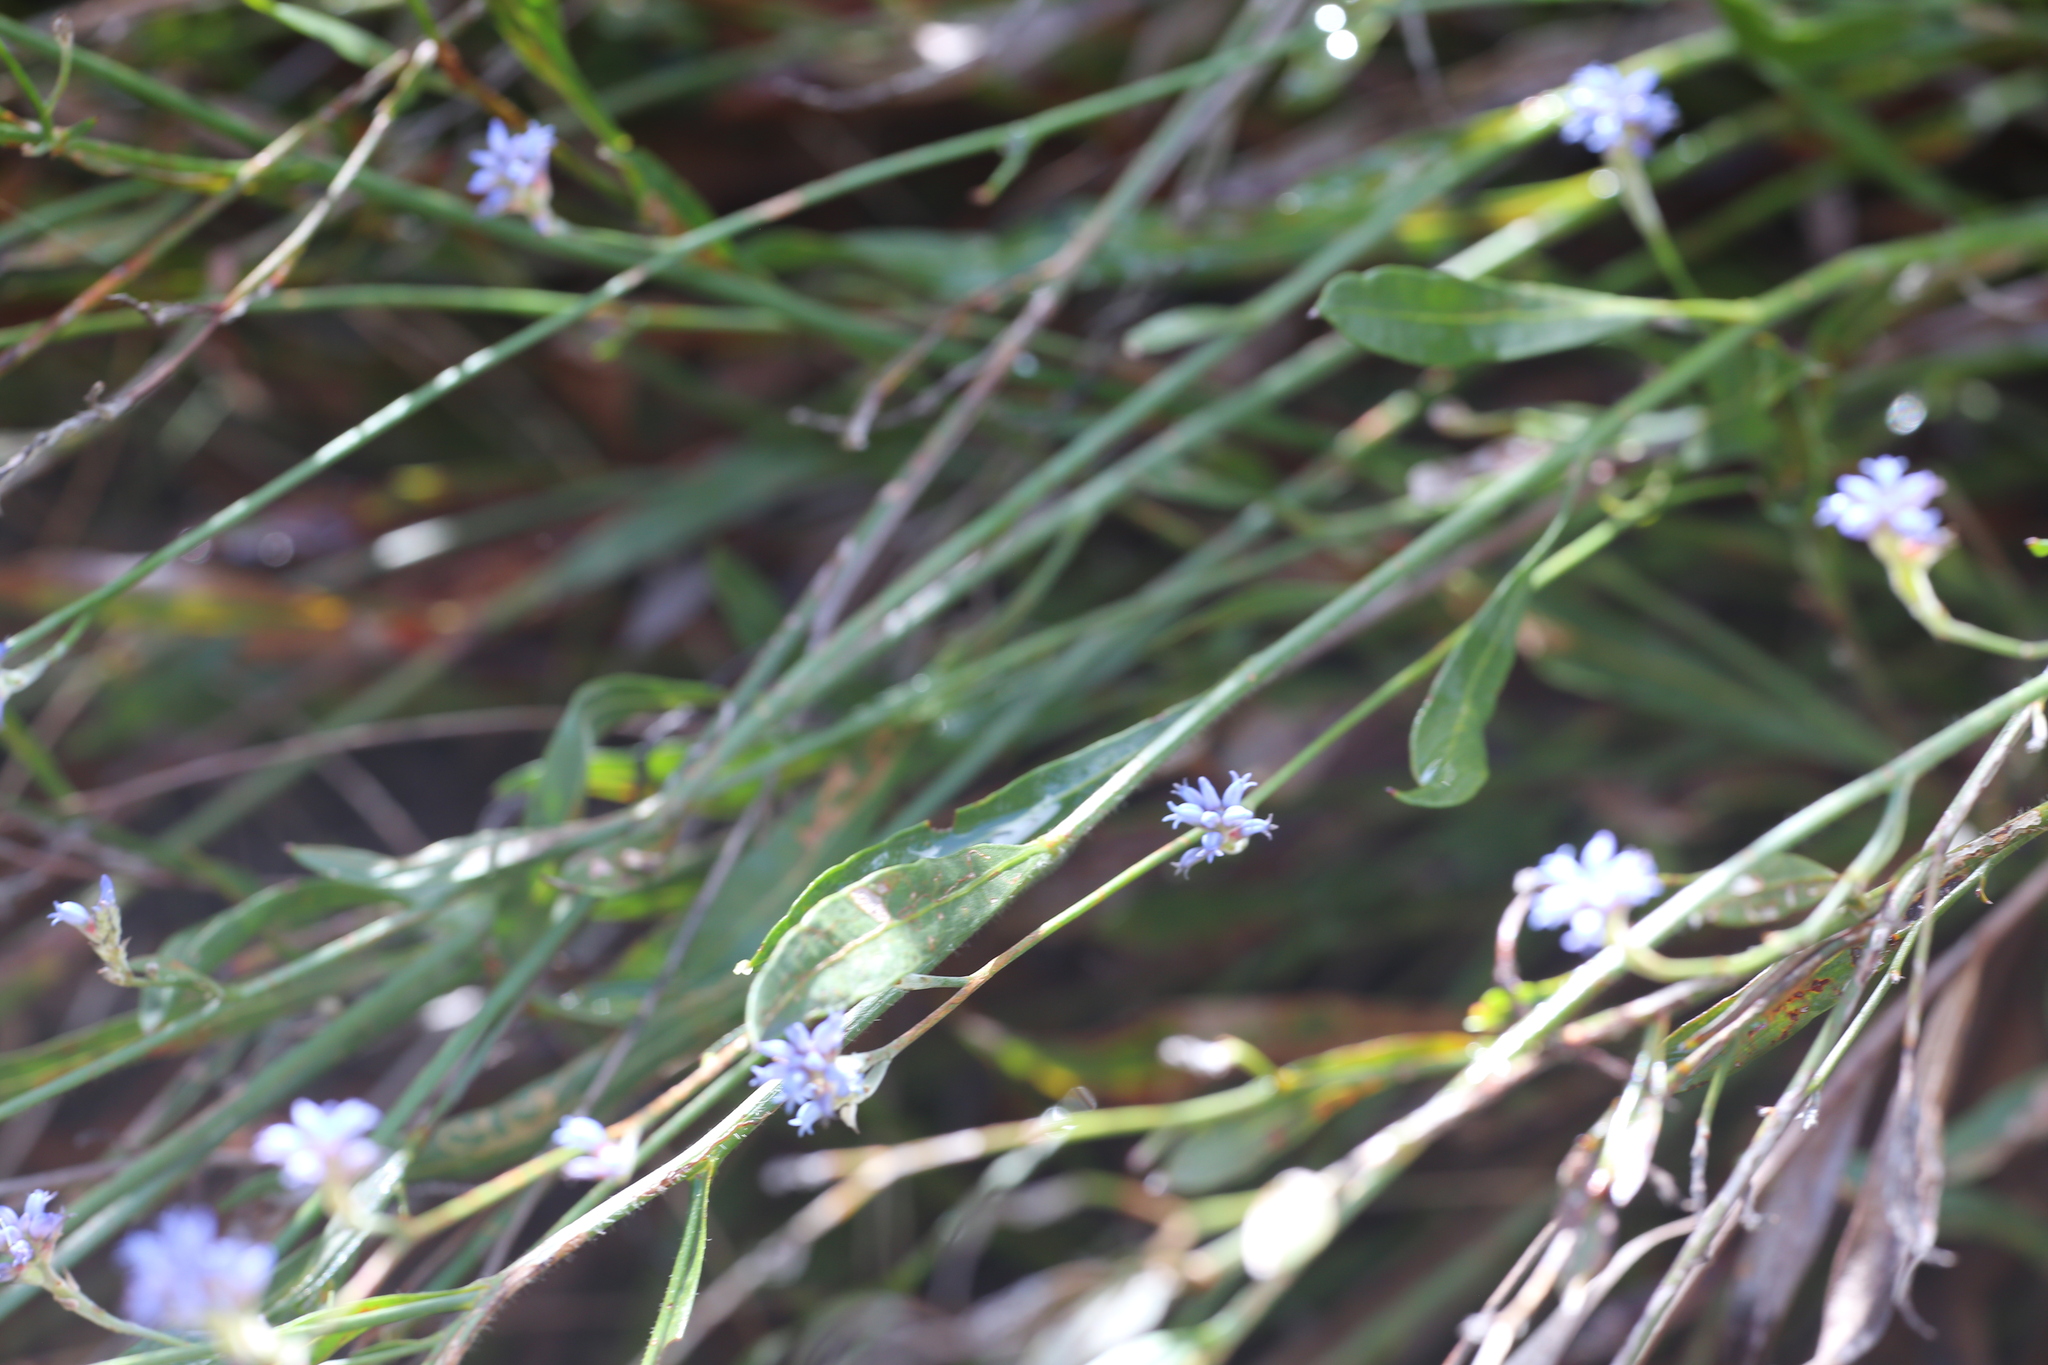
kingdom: Plantae
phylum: Tracheophyta
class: Magnoliopsida
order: Proteales
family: Proteaceae
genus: Conospermum
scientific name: Conospermum caeruleum
